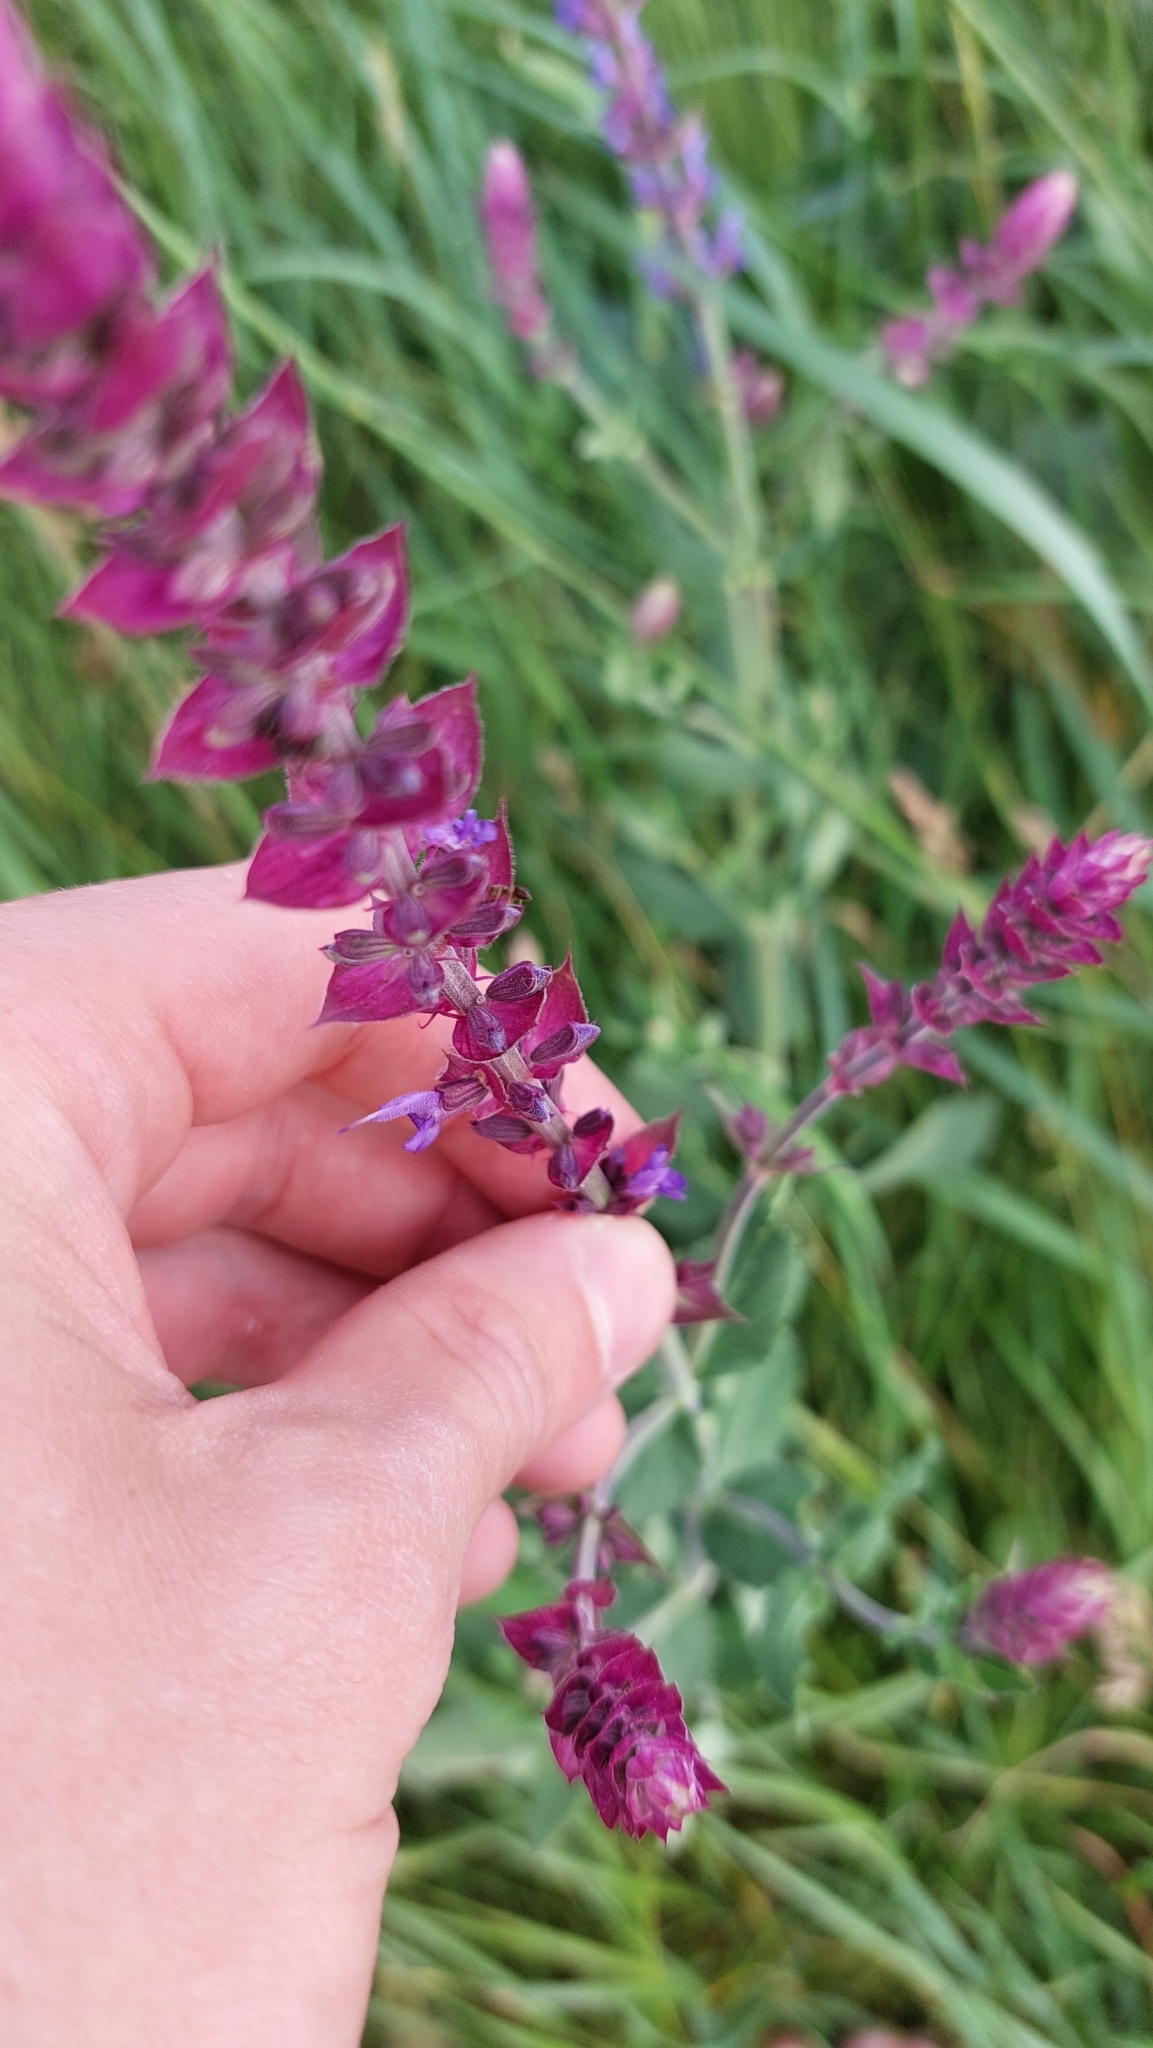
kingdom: Plantae
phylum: Tracheophyta
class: Magnoliopsida
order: Lamiales
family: Lamiaceae
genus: Salvia
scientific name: Salvia nemorosa
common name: Balkan clary
